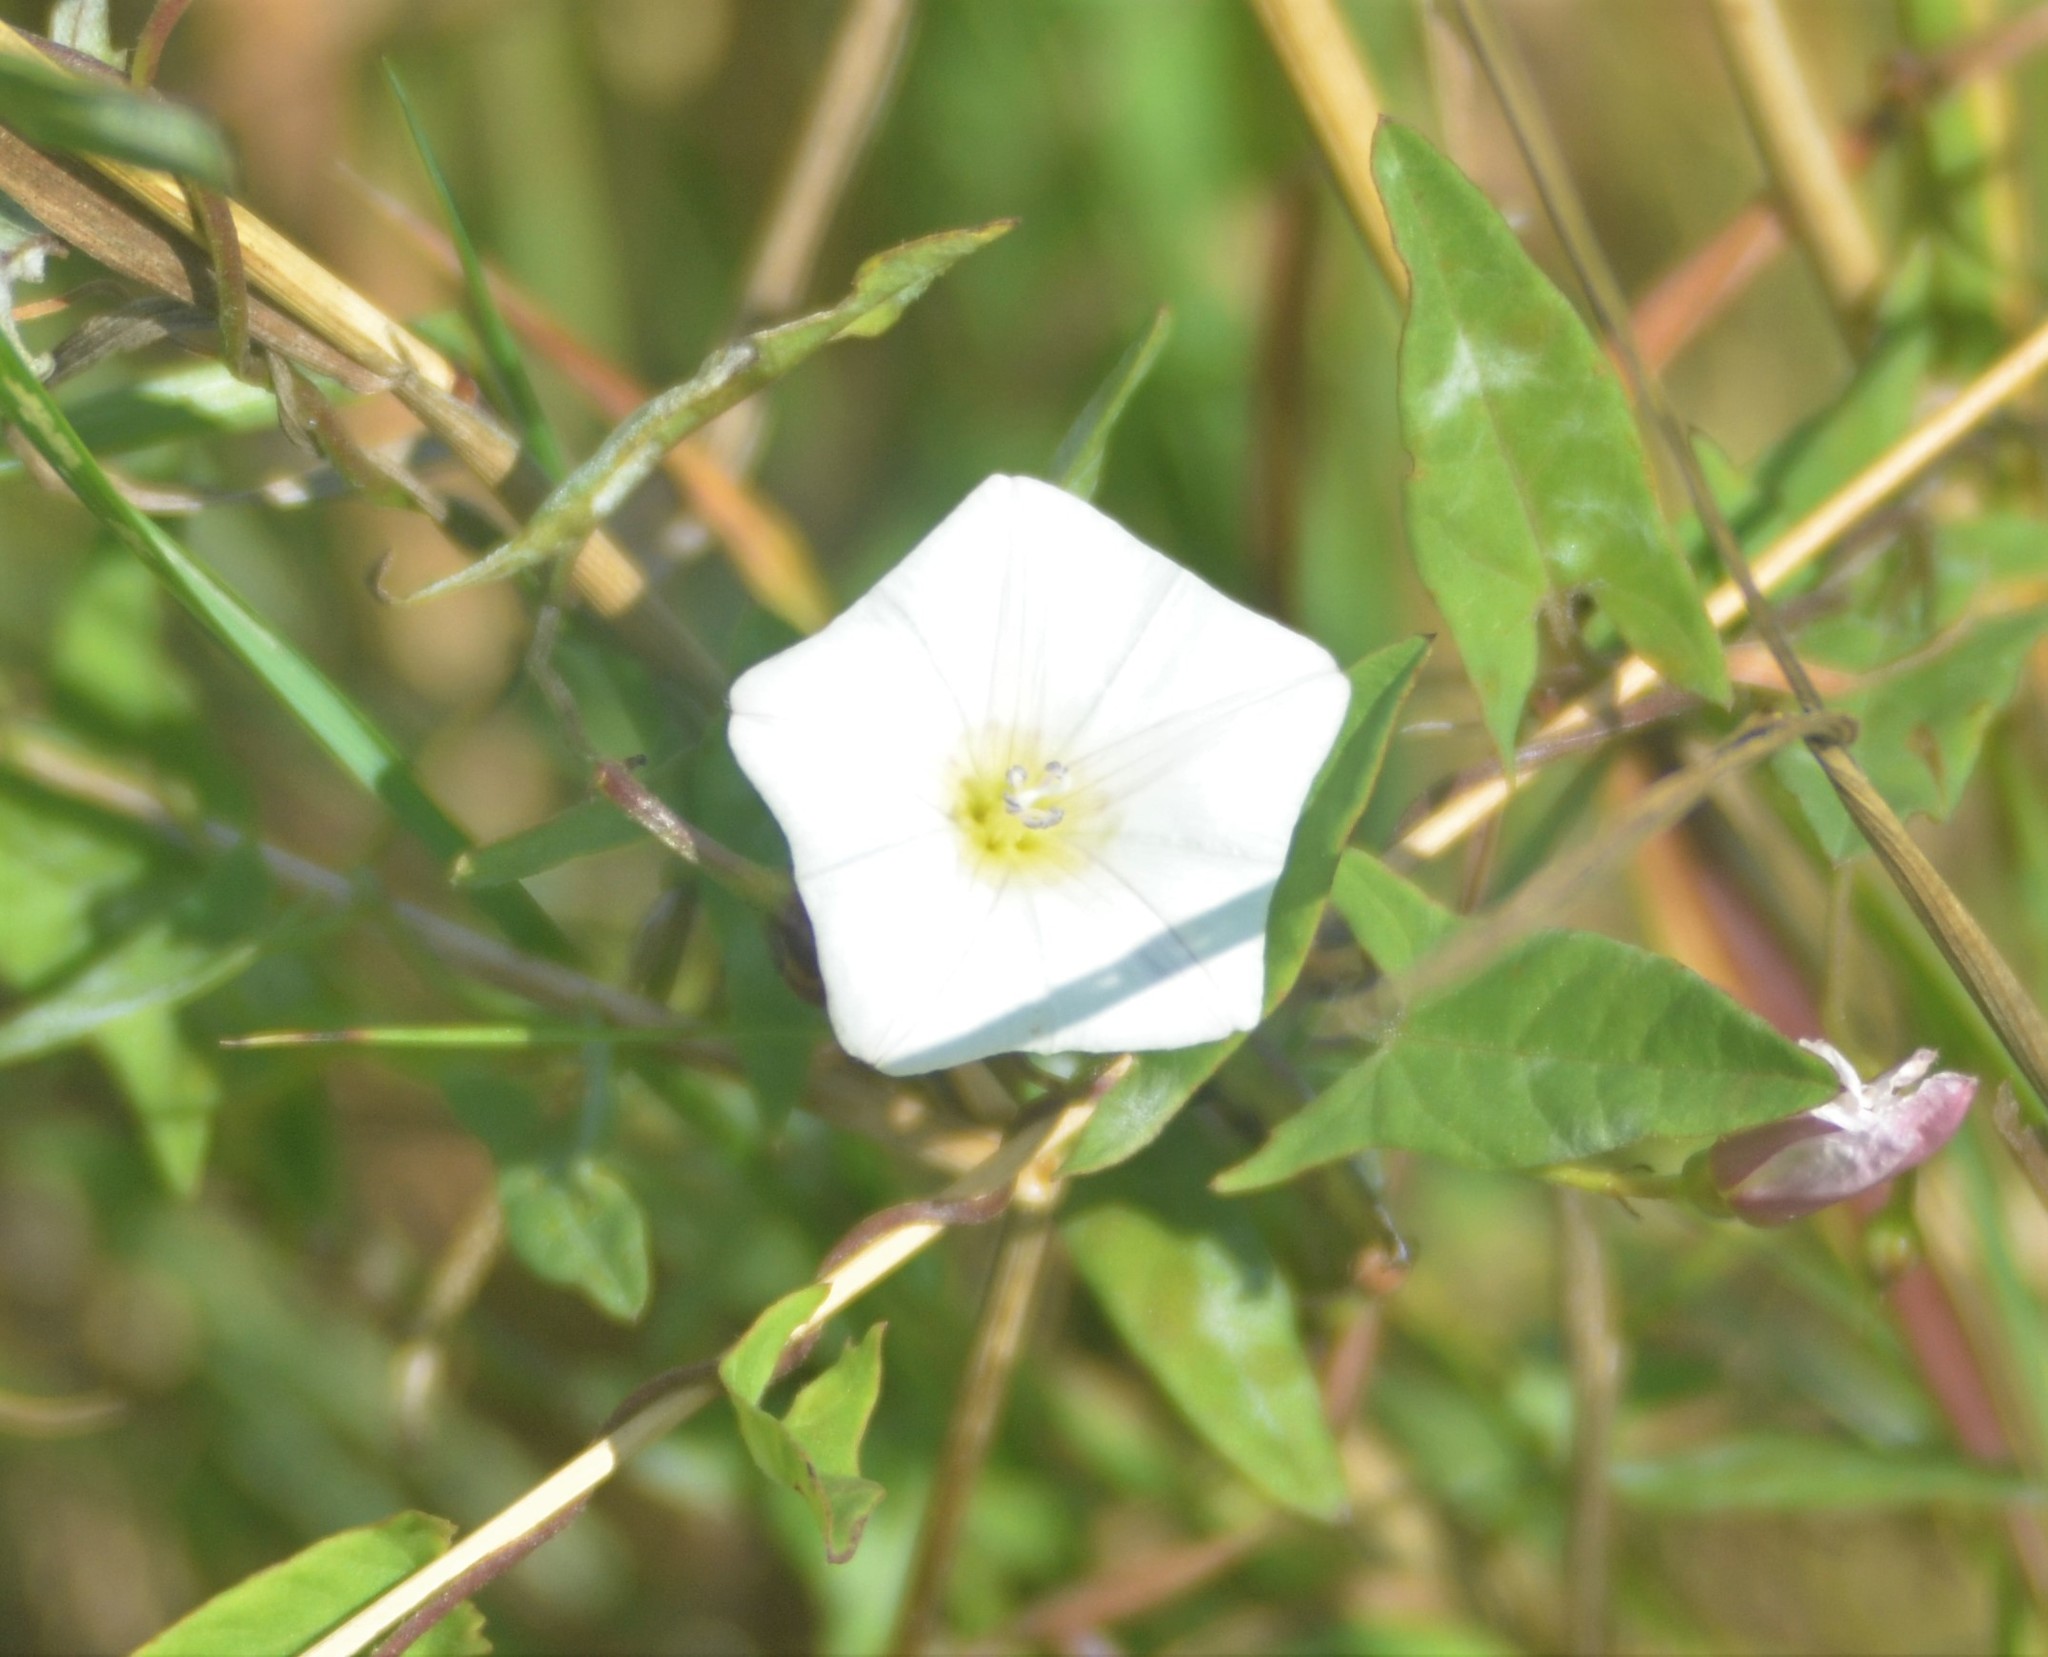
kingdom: Plantae
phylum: Tracheophyta
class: Magnoliopsida
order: Solanales
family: Convolvulaceae
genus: Convolvulus
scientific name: Convolvulus arvensis
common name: Field bindweed
